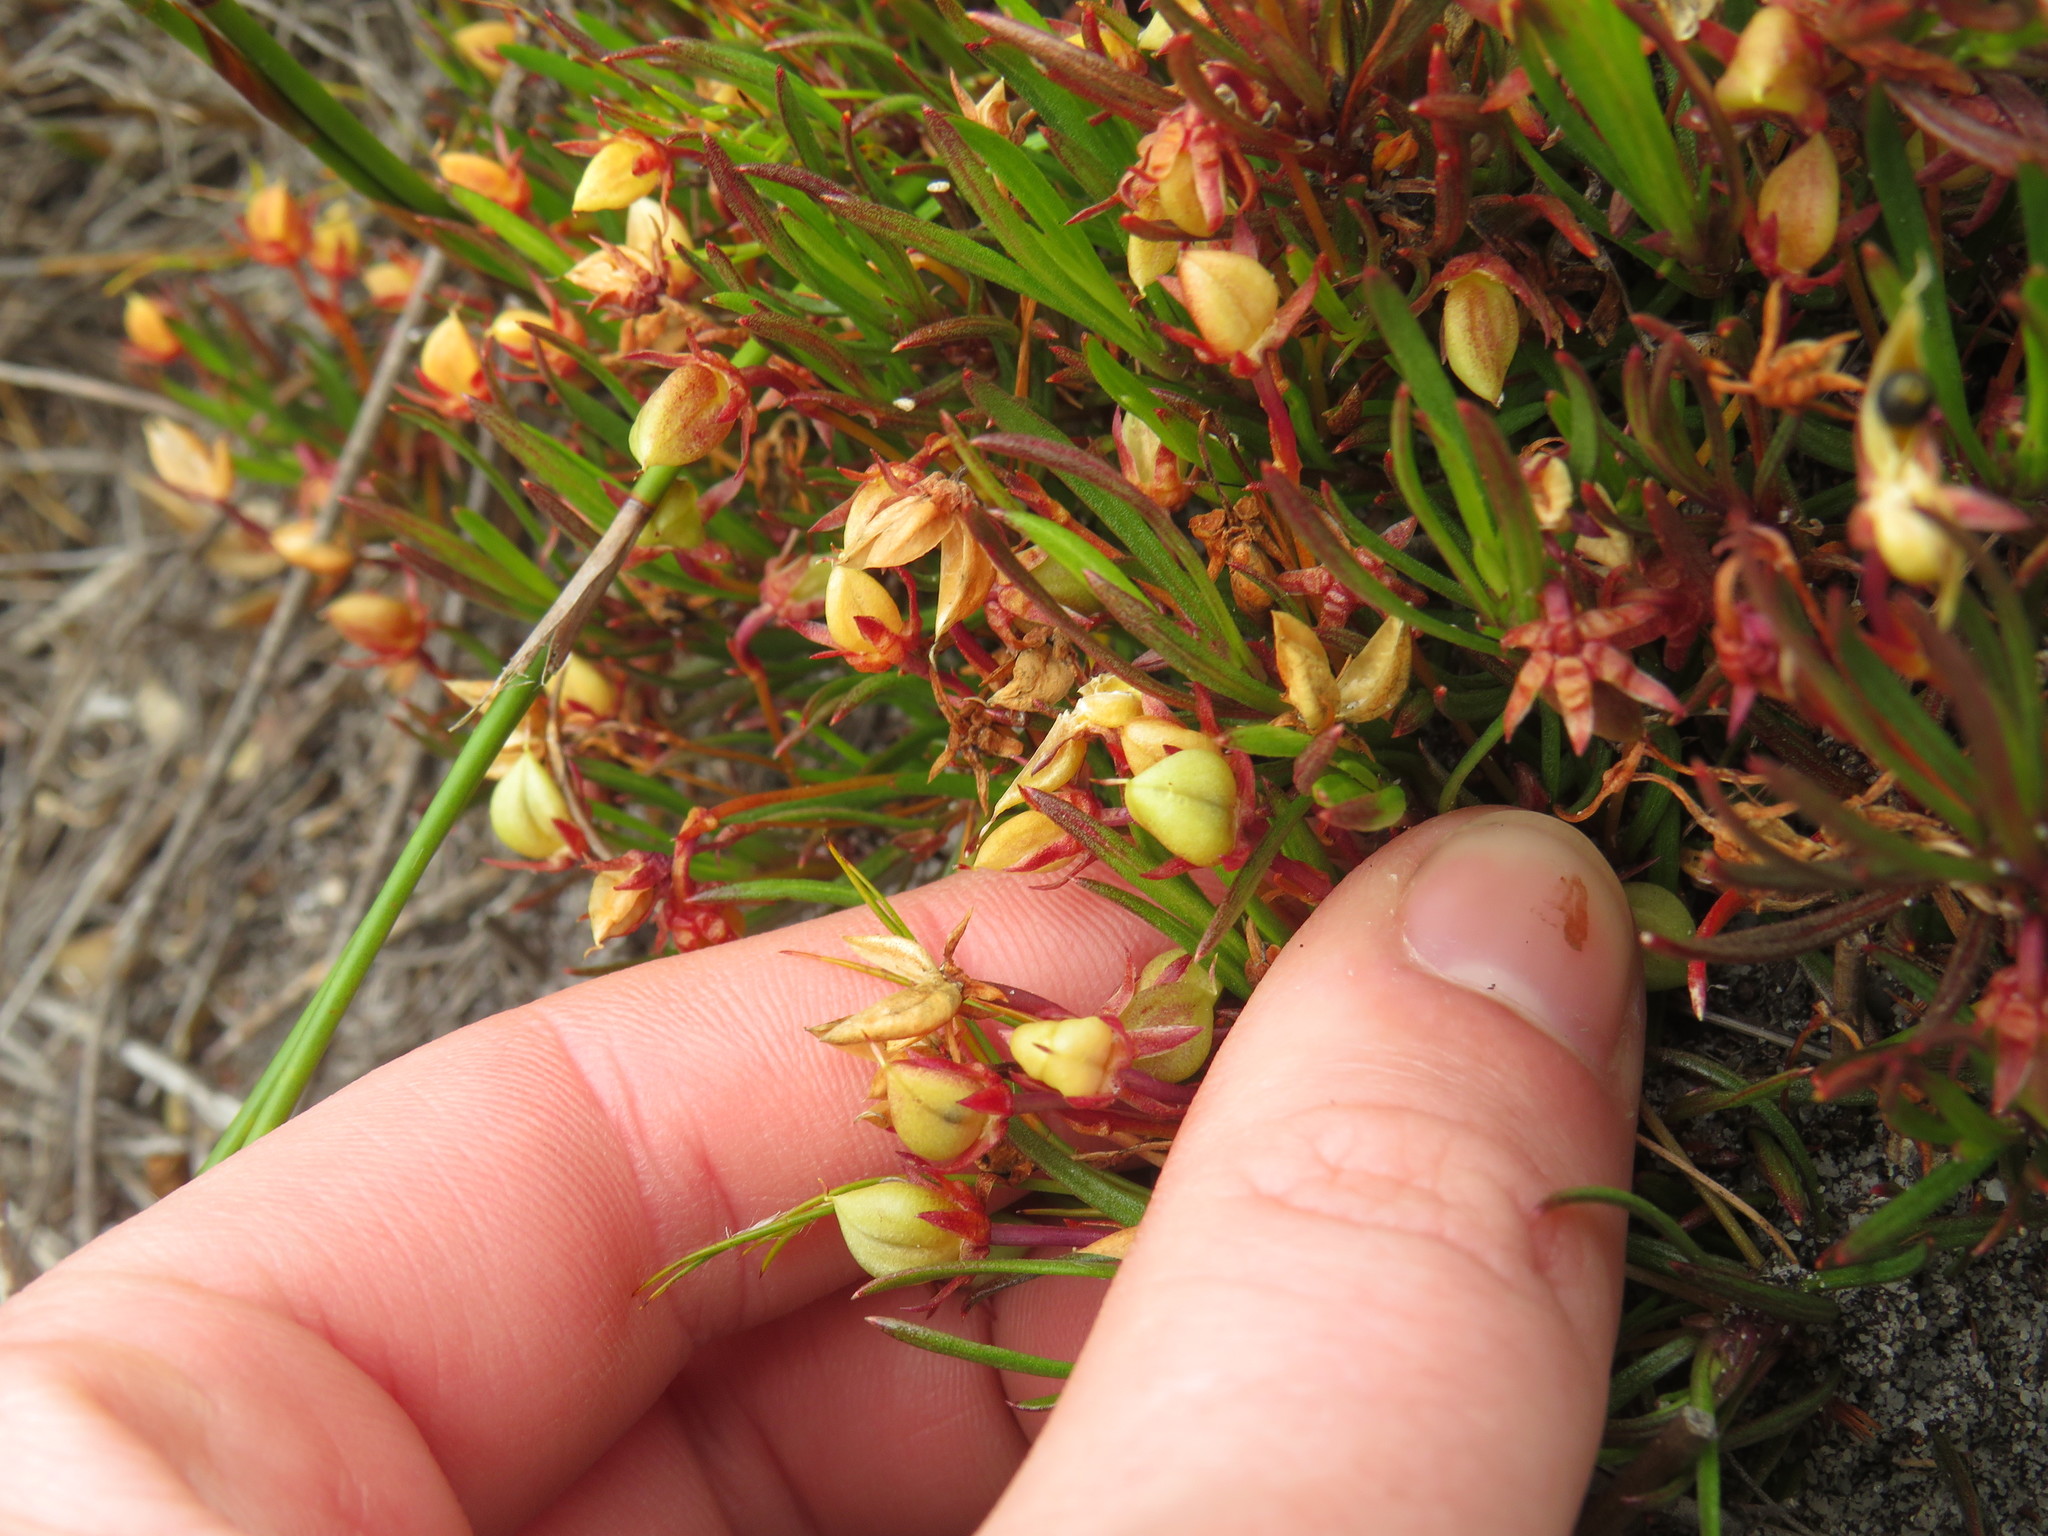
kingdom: Plantae
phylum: Tracheophyta
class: Magnoliopsida
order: Malpighiales
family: Violaceae
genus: Viola
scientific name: Viola decumbens
